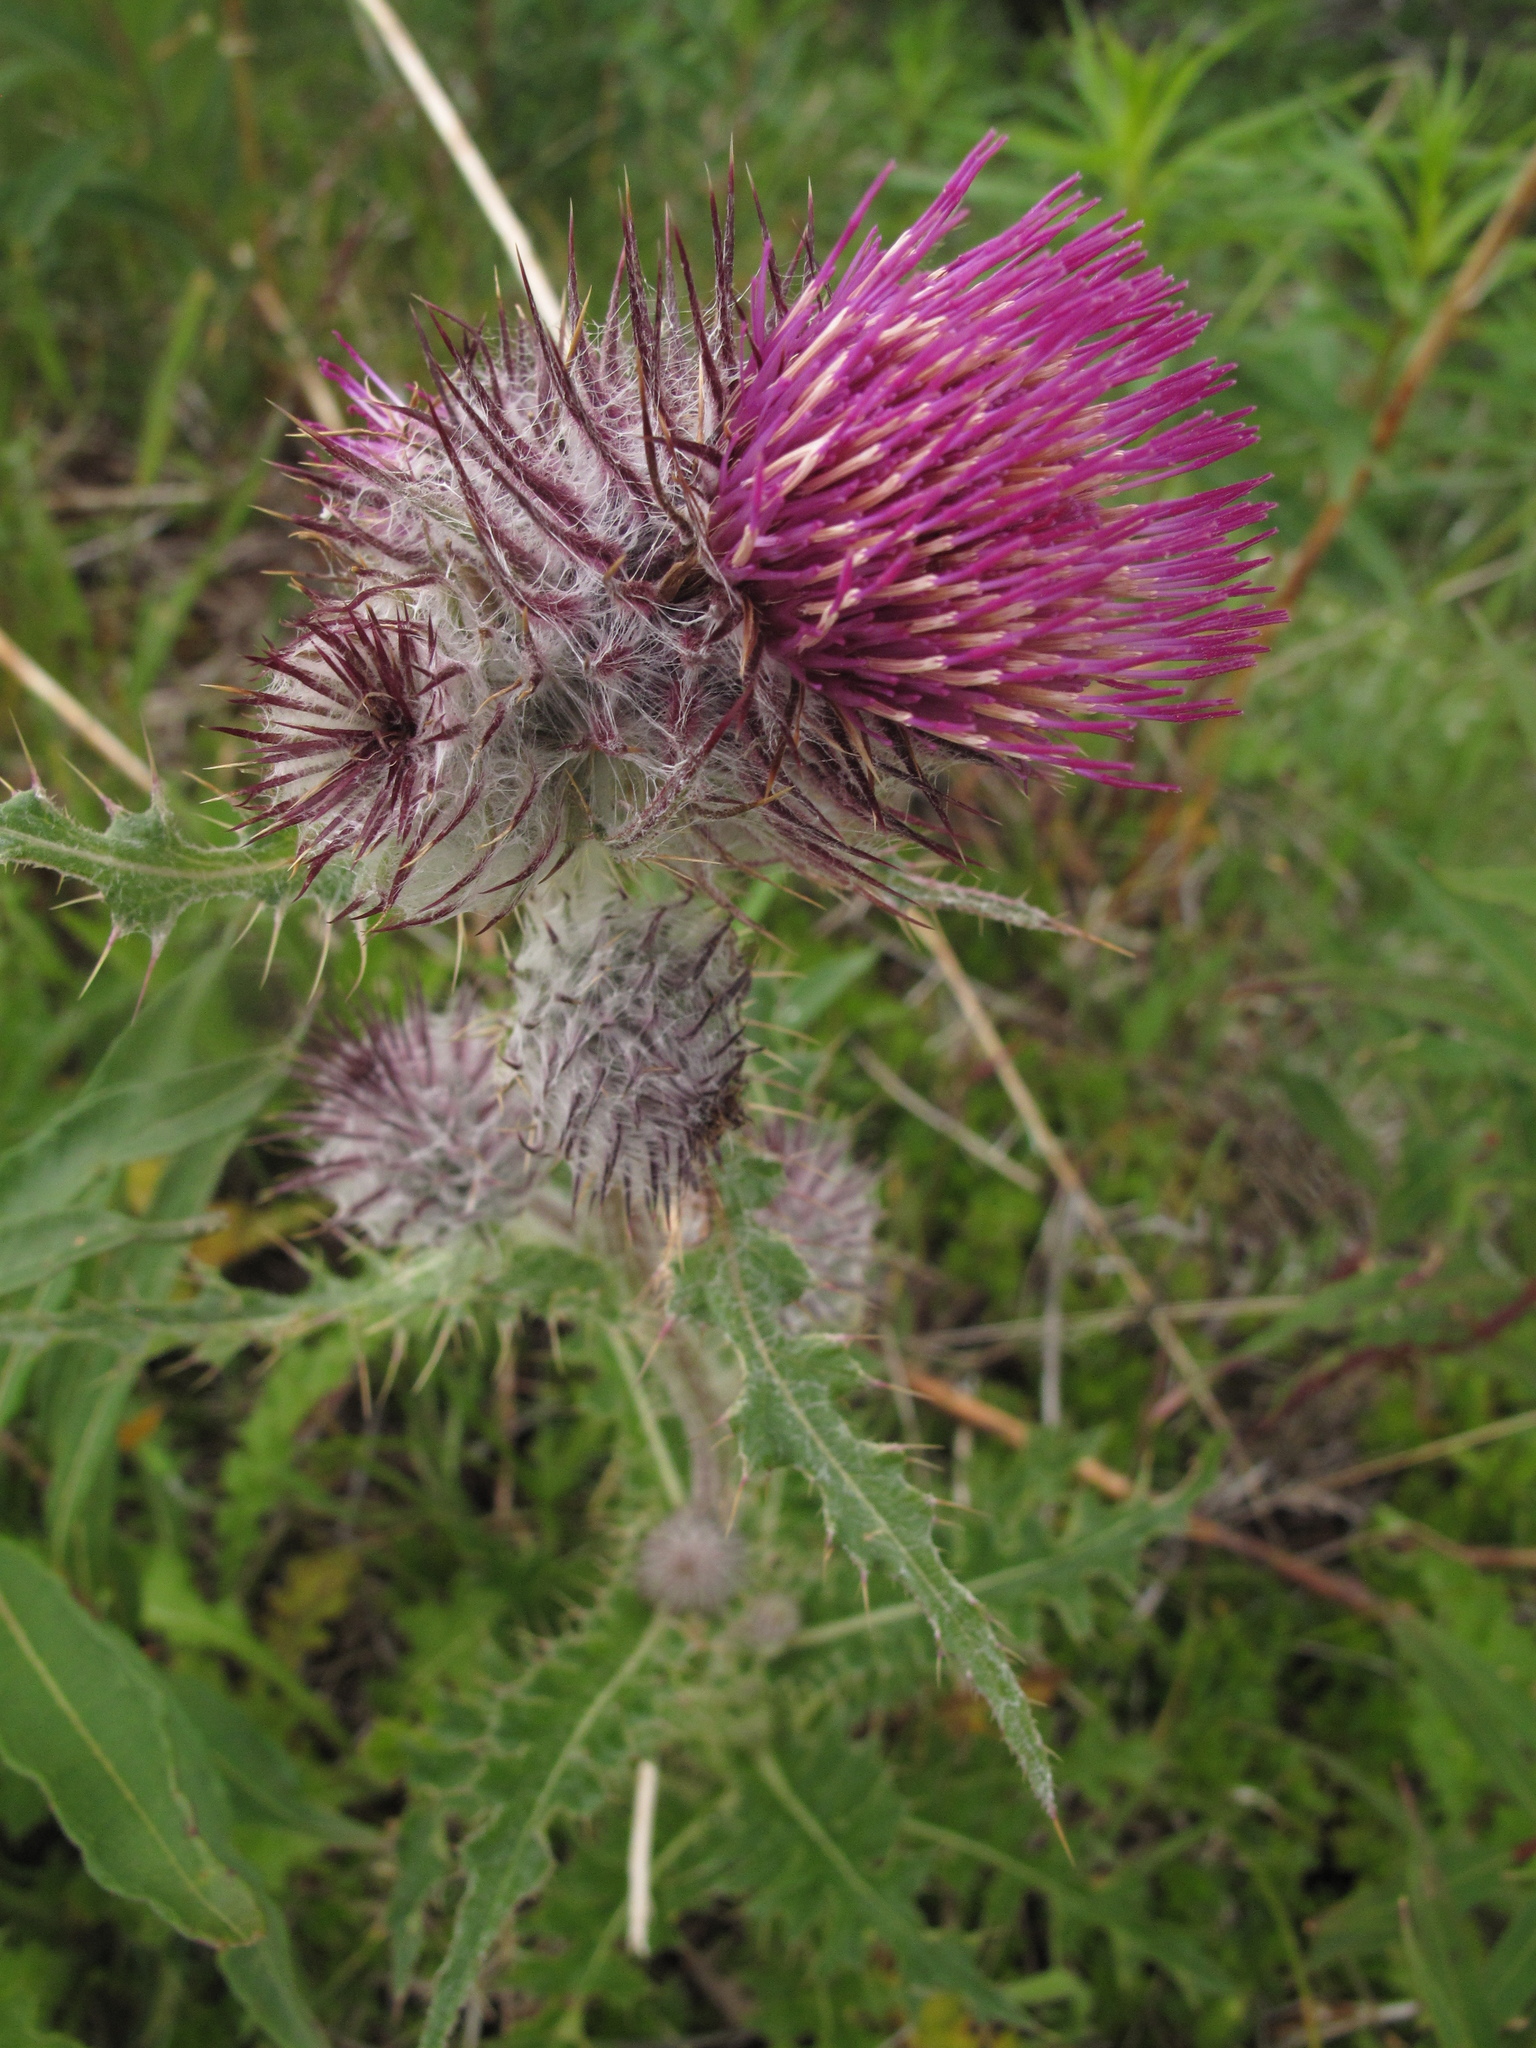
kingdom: Plantae
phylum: Tracheophyta
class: Magnoliopsida
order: Asterales
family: Asteraceae
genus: Cirsium
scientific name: Cirsium edule
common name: Indian thistle
